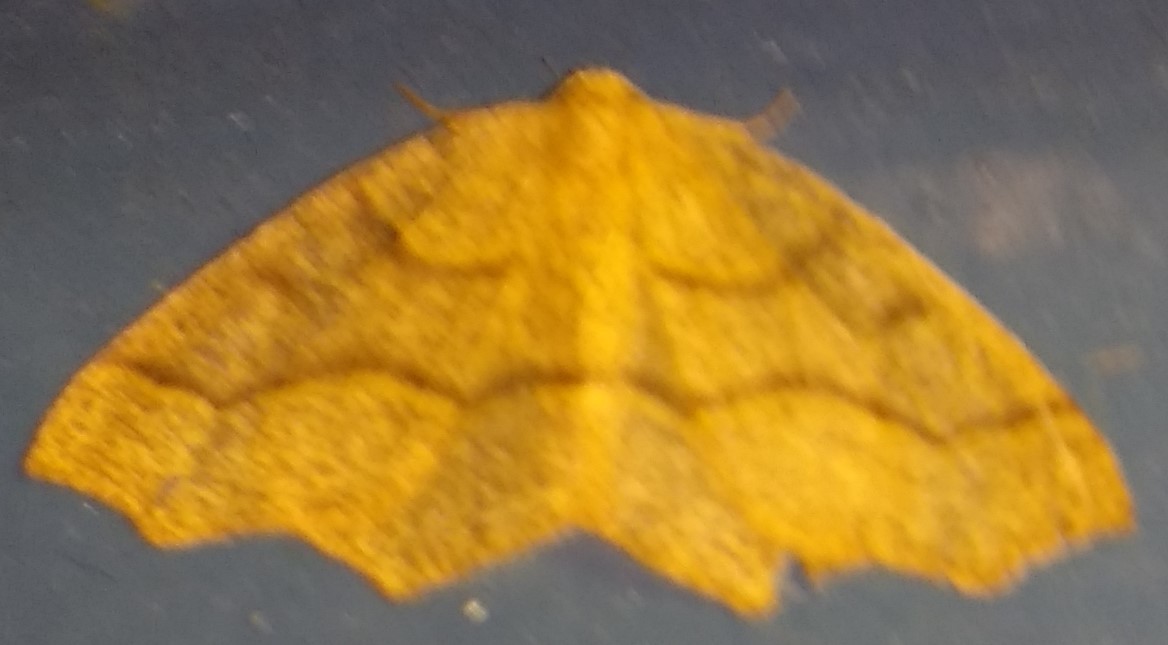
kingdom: Animalia
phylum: Arthropoda
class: Insecta
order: Lepidoptera
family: Geometridae
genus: Lambdina
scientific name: Lambdina fiscellaria
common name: Hemlock looper
